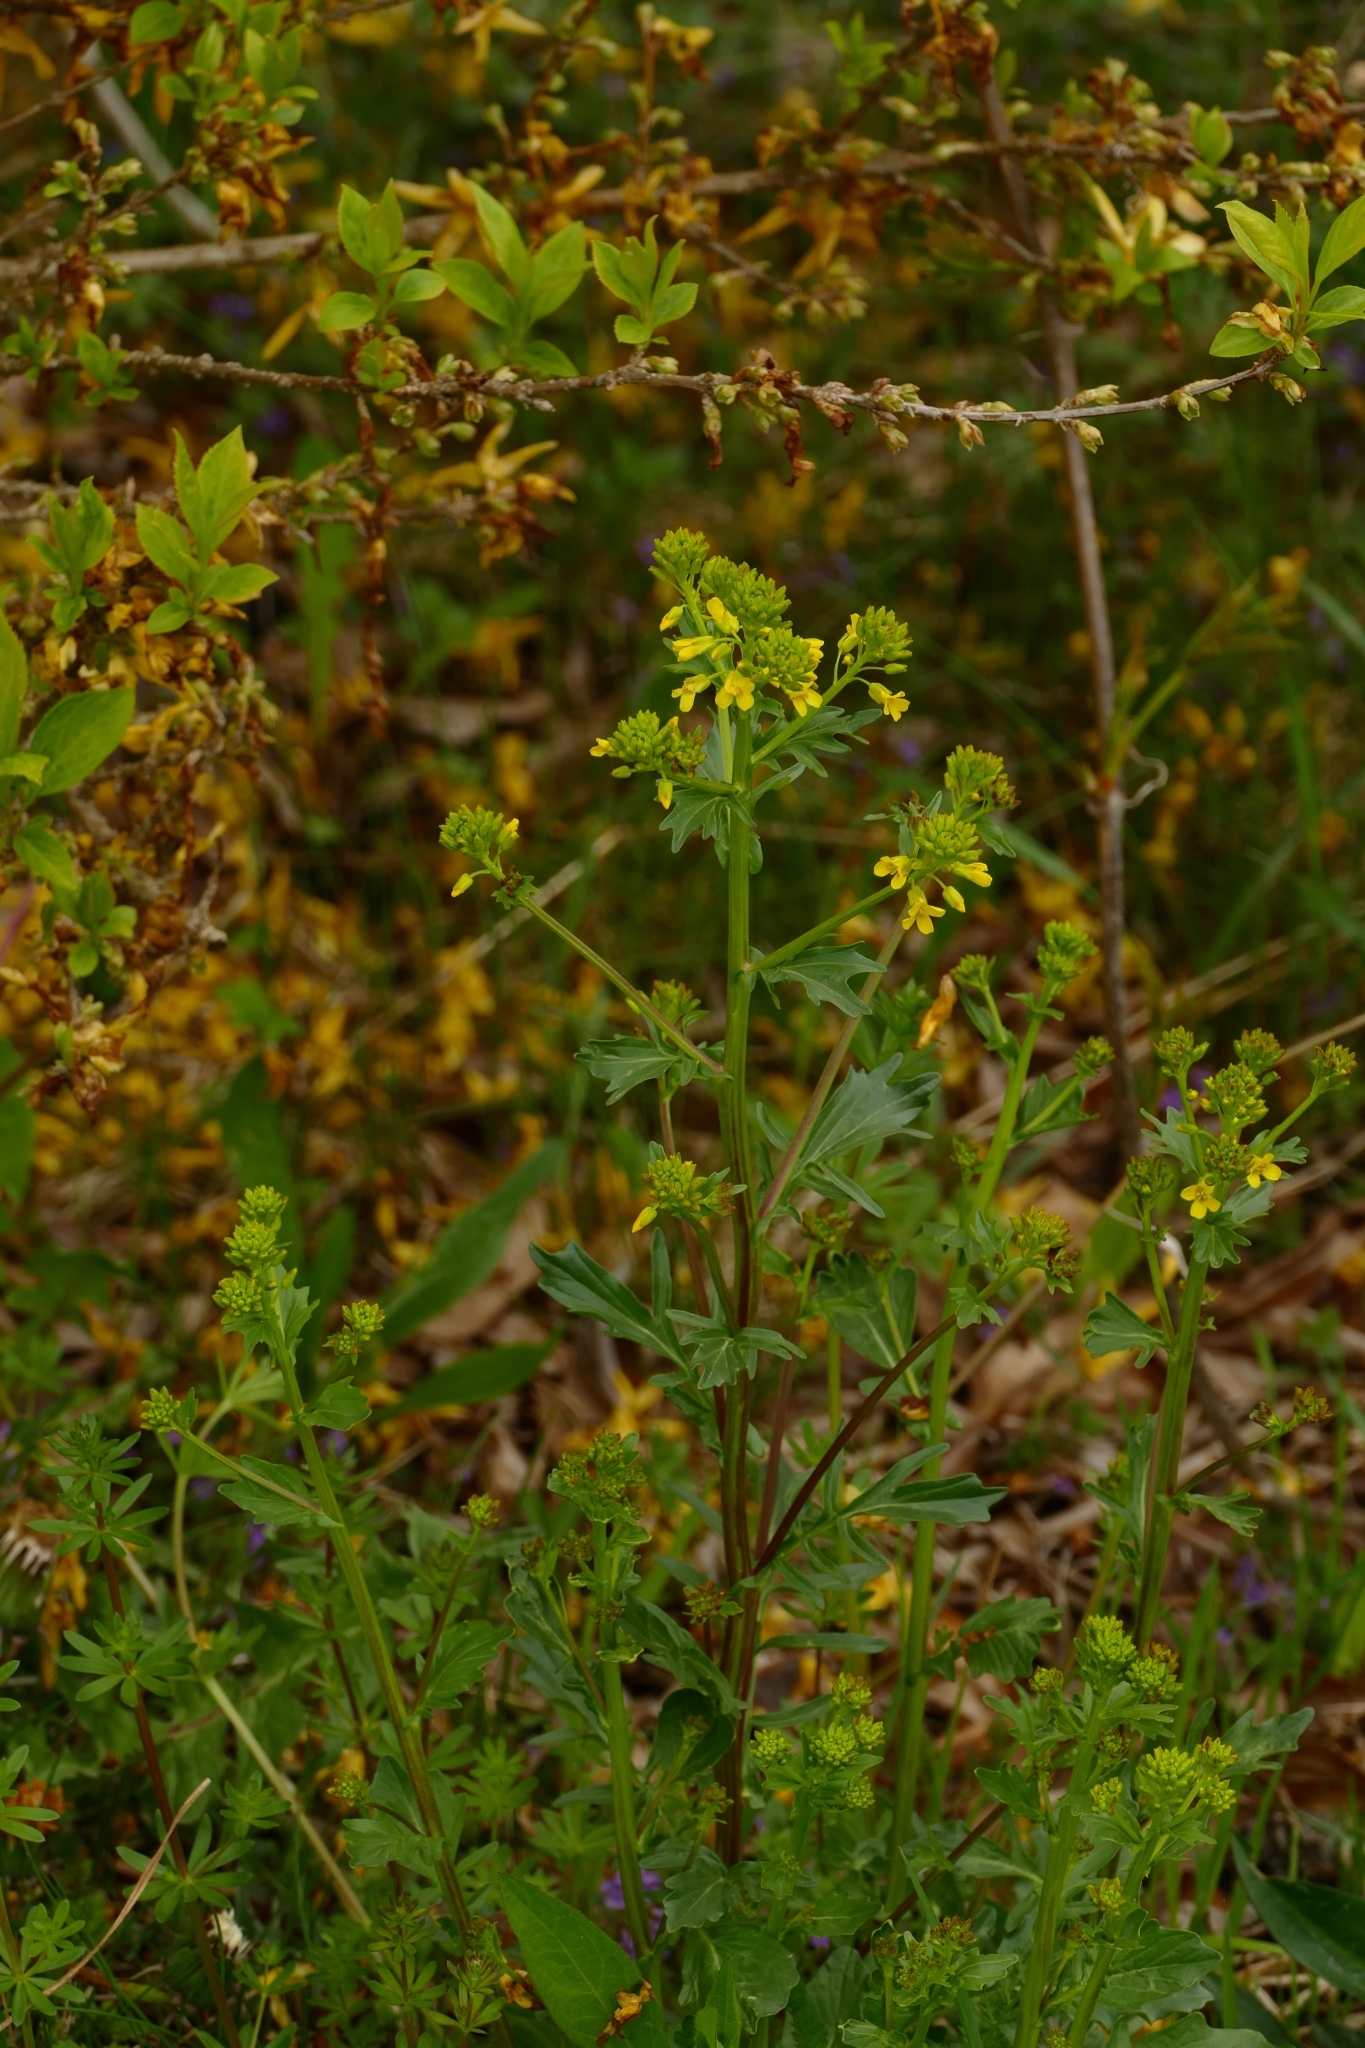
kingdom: Plantae
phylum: Tracheophyta
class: Magnoliopsida
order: Brassicales
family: Brassicaceae
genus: Barbarea
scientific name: Barbarea vulgaris
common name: Cressy-greens
